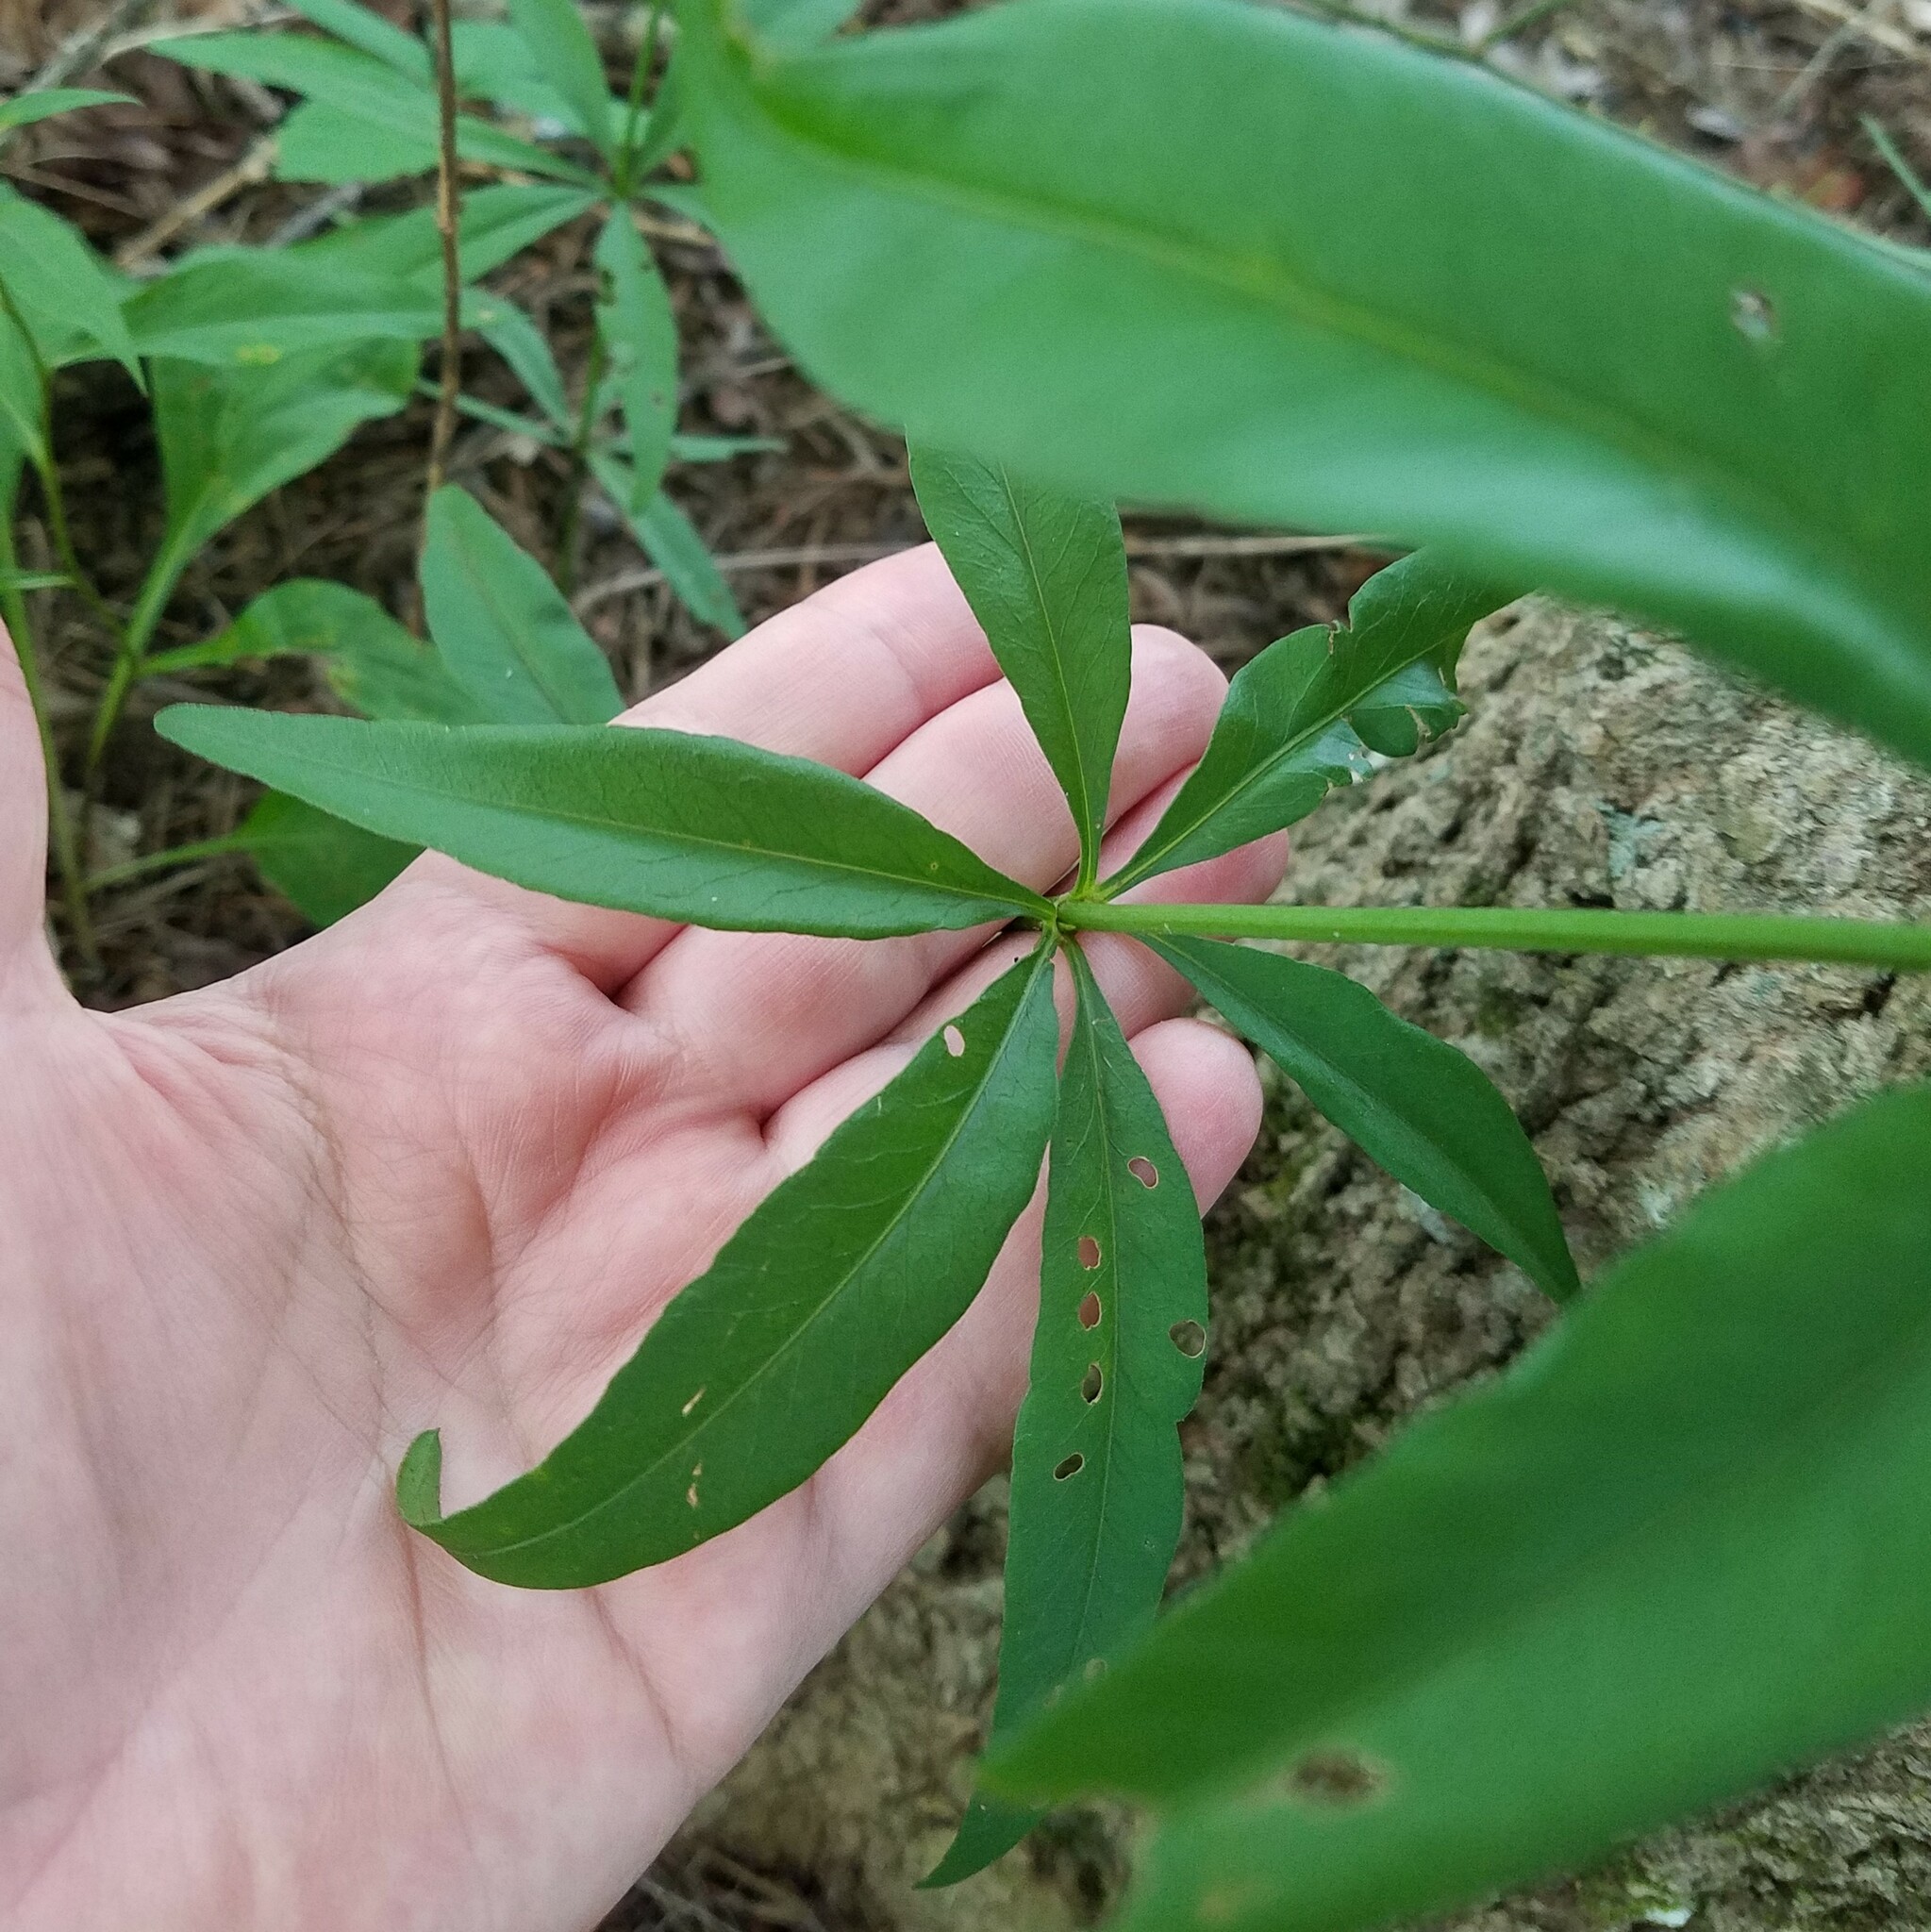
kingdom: Plantae
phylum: Tracheophyta
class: Magnoliopsida
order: Asterales
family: Asteraceae
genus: Coreopsis
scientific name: Coreopsis major
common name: Forest tickseed
